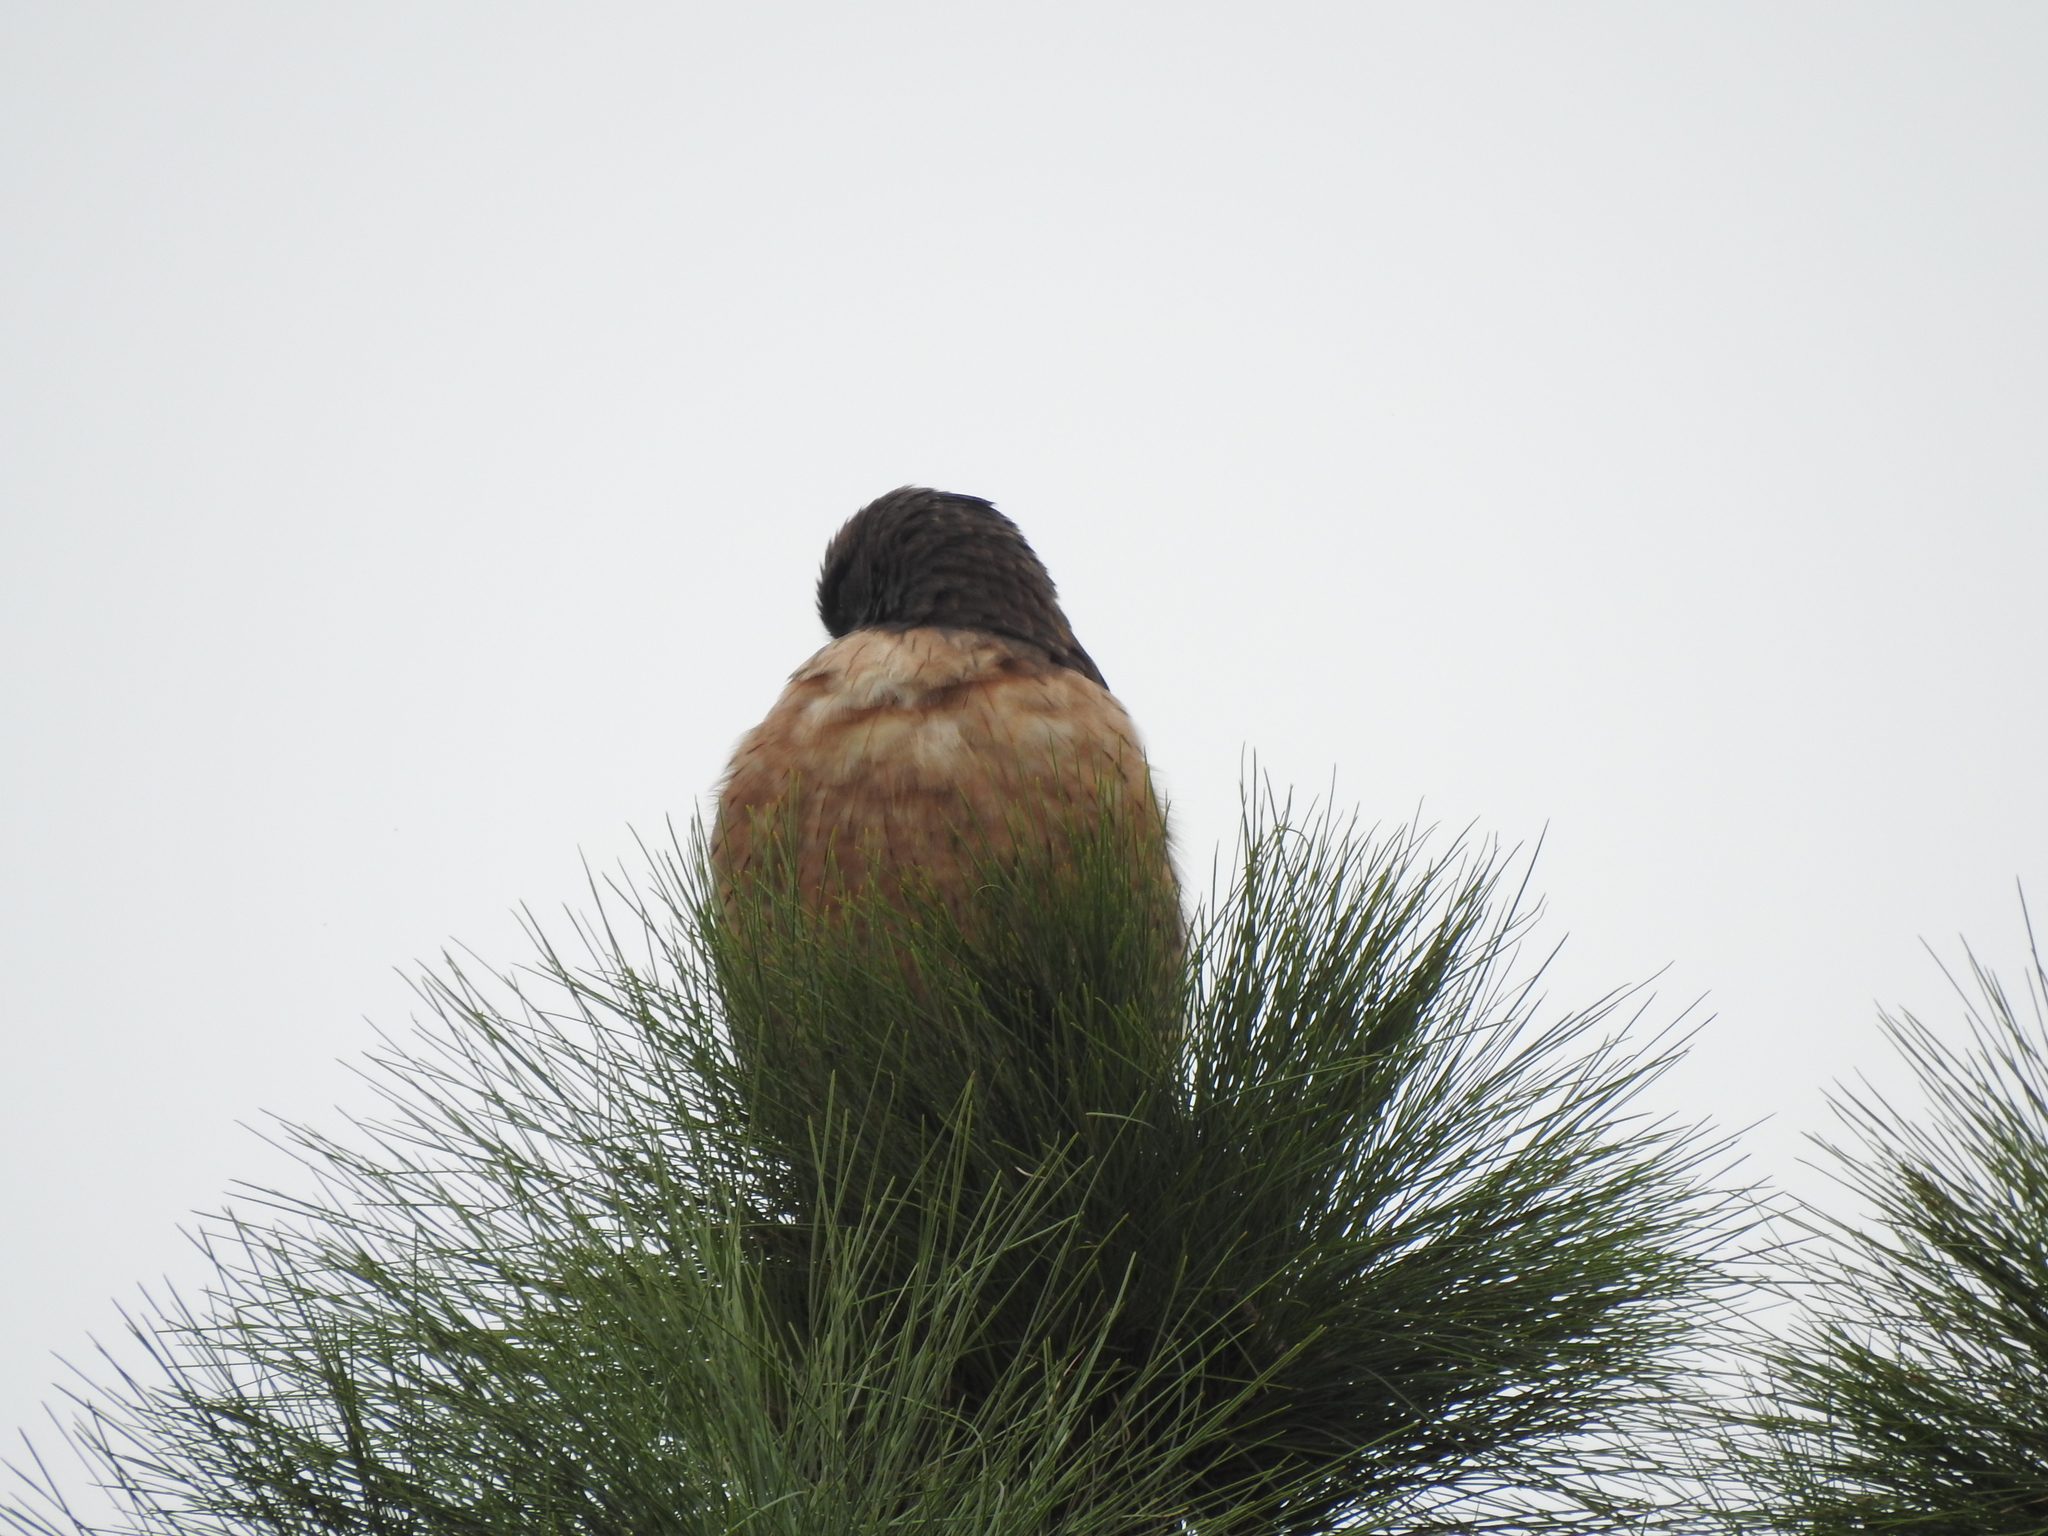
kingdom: Animalia
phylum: Chordata
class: Aves
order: Accipitriformes
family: Accipitridae
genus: Buteo
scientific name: Buteo jamaicensis
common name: Red-tailed hawk
